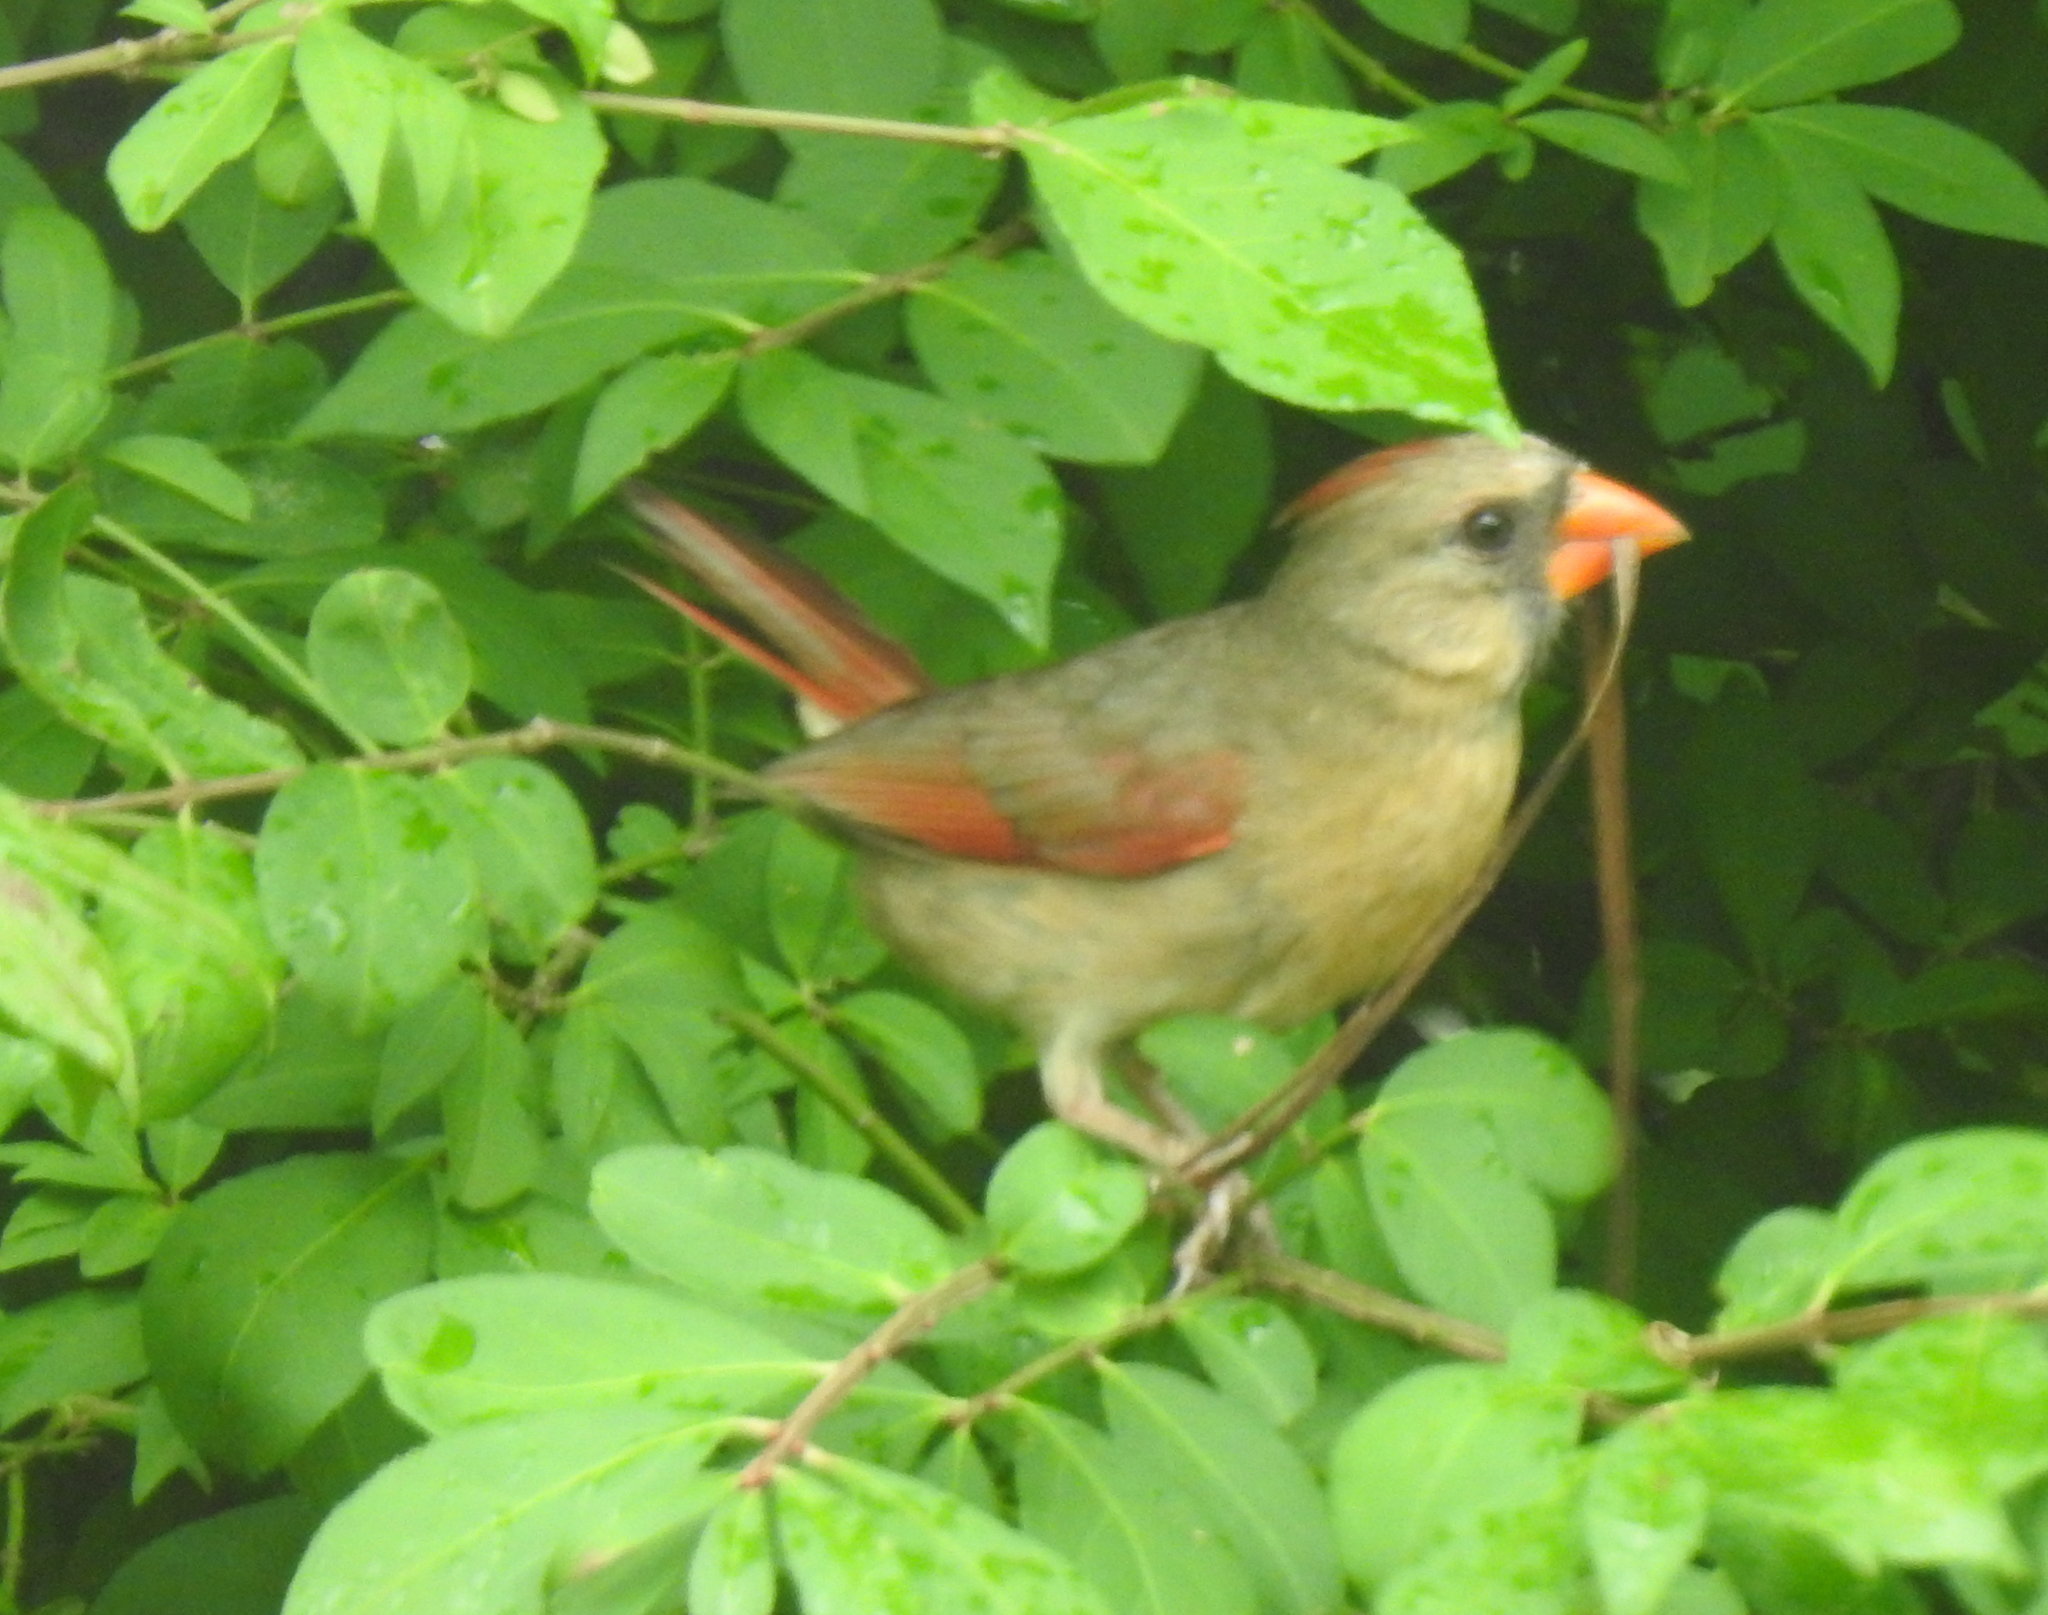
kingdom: Animalia
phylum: Chordata
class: Aves
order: Passeriformes
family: Cardinalidae
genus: Cardinalis
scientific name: Cardinalis cardinalis
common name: Northern cardinal
